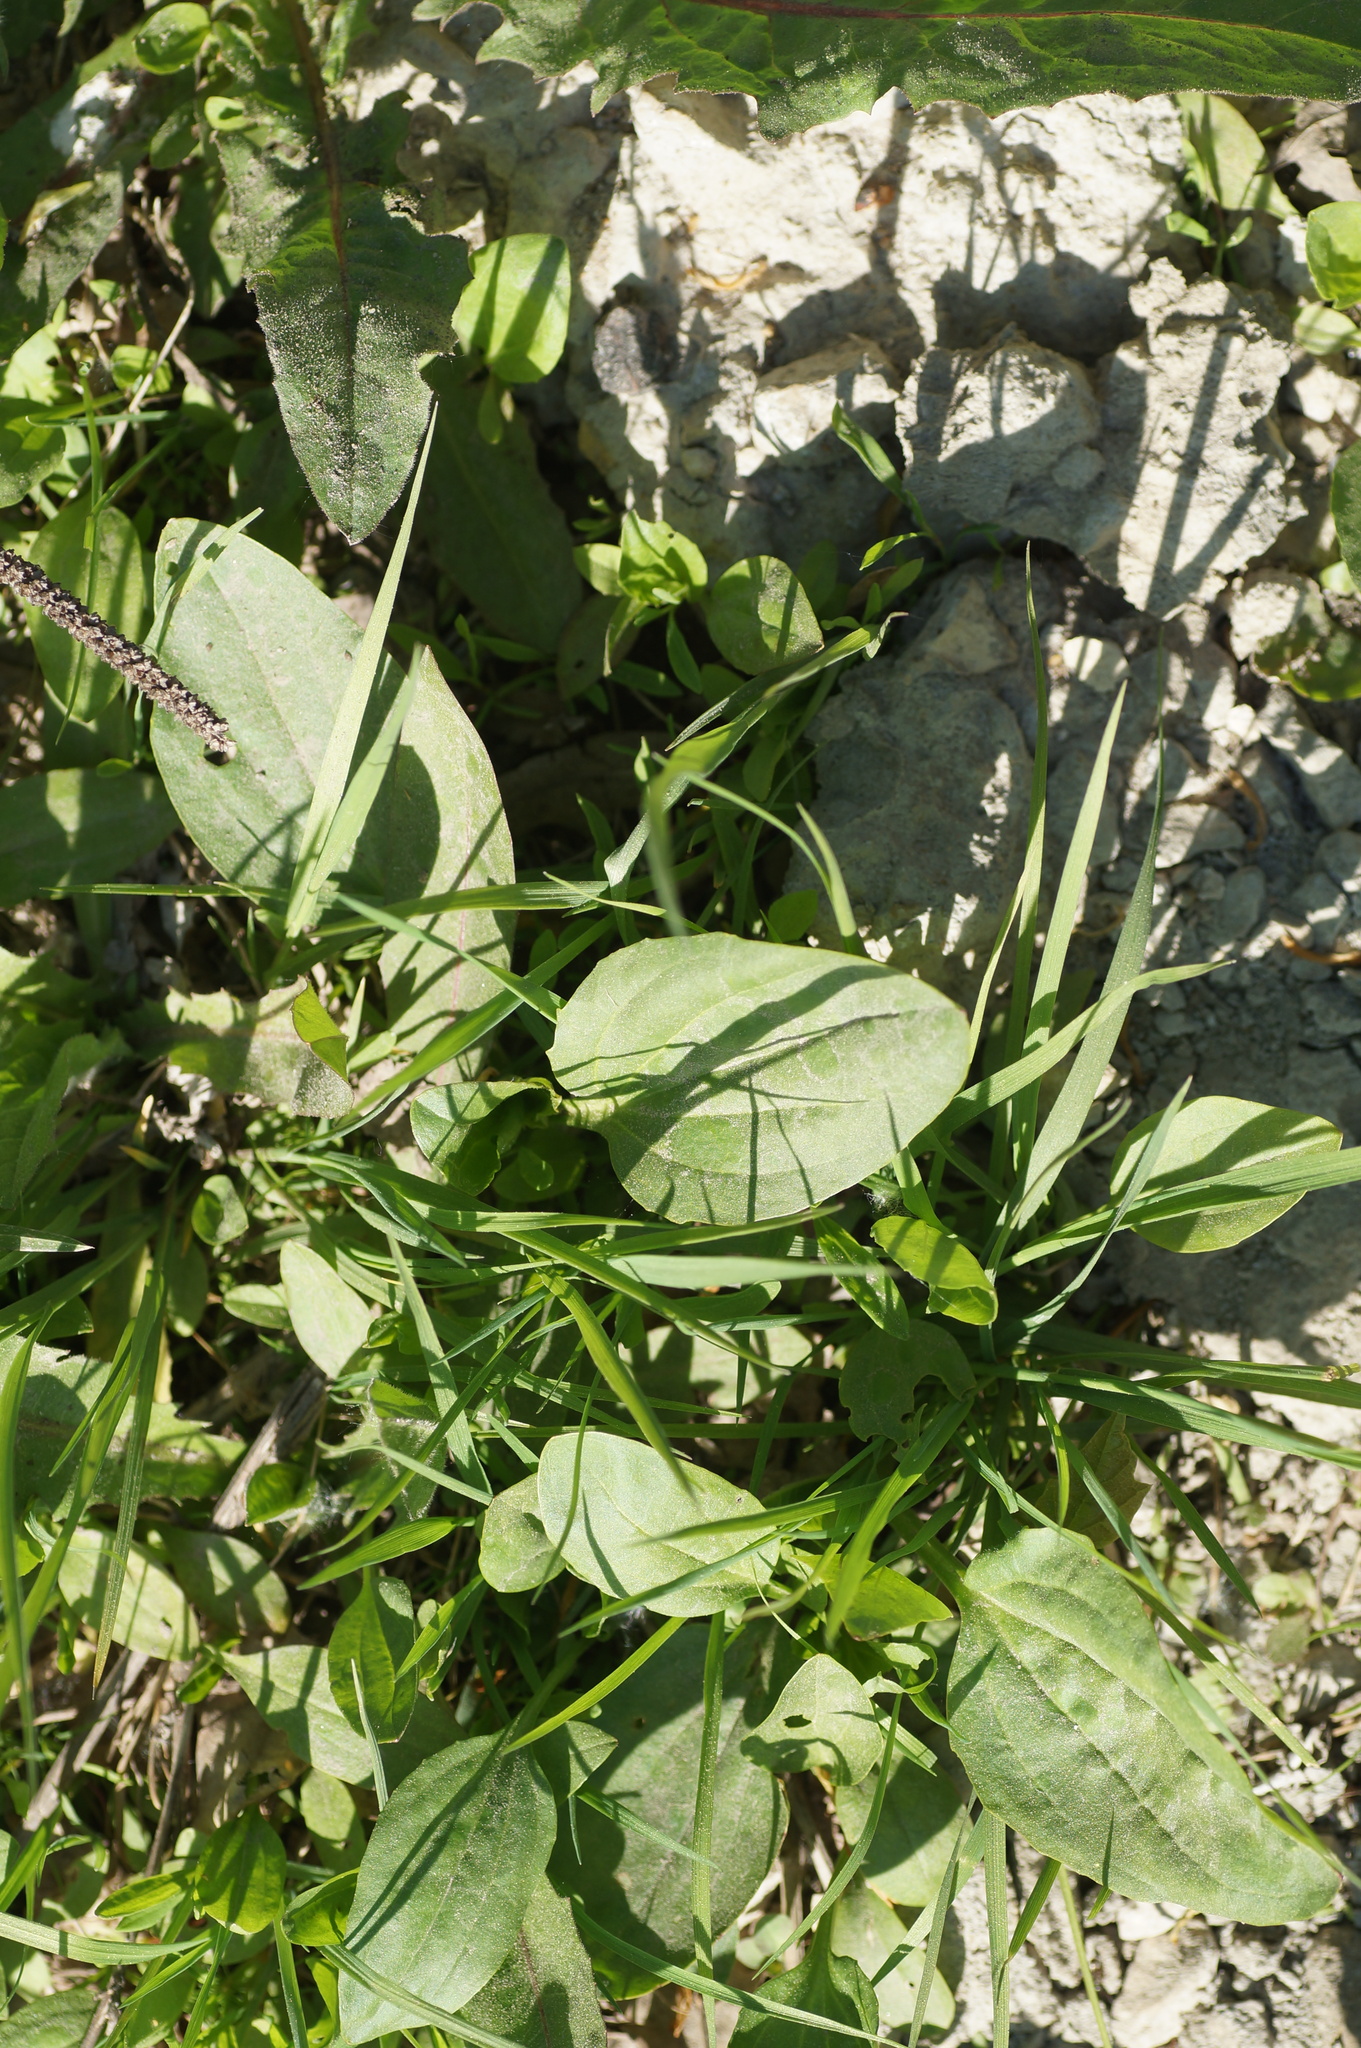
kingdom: Plantae
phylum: Tracheophyta
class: Magnoliopsida
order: Lamiales
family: Plantaginaceae
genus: Plantago
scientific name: Plantago major
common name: Common plantain
